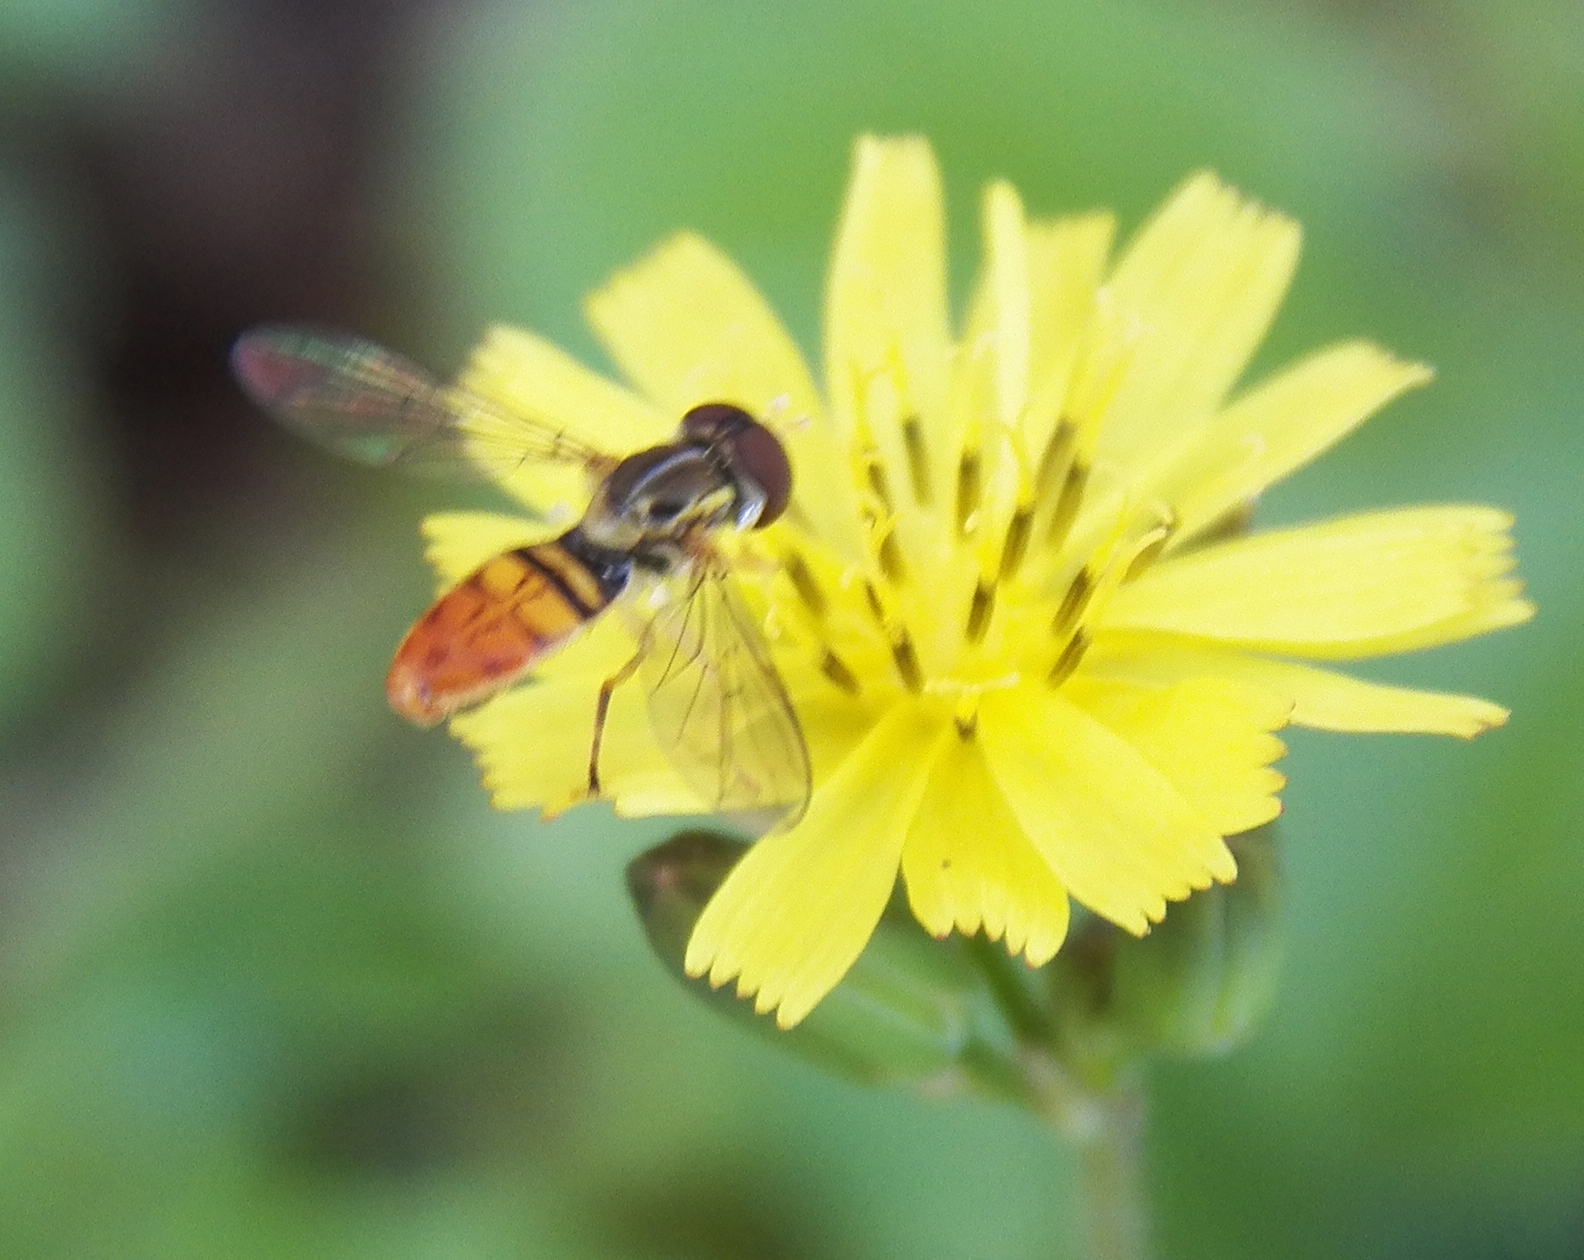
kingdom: Animalia
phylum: Arthropoda
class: Insecta
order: Diptera
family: Syrphidae
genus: Toxomerus
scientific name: Toxomerus marginatus
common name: Syrphid fly
